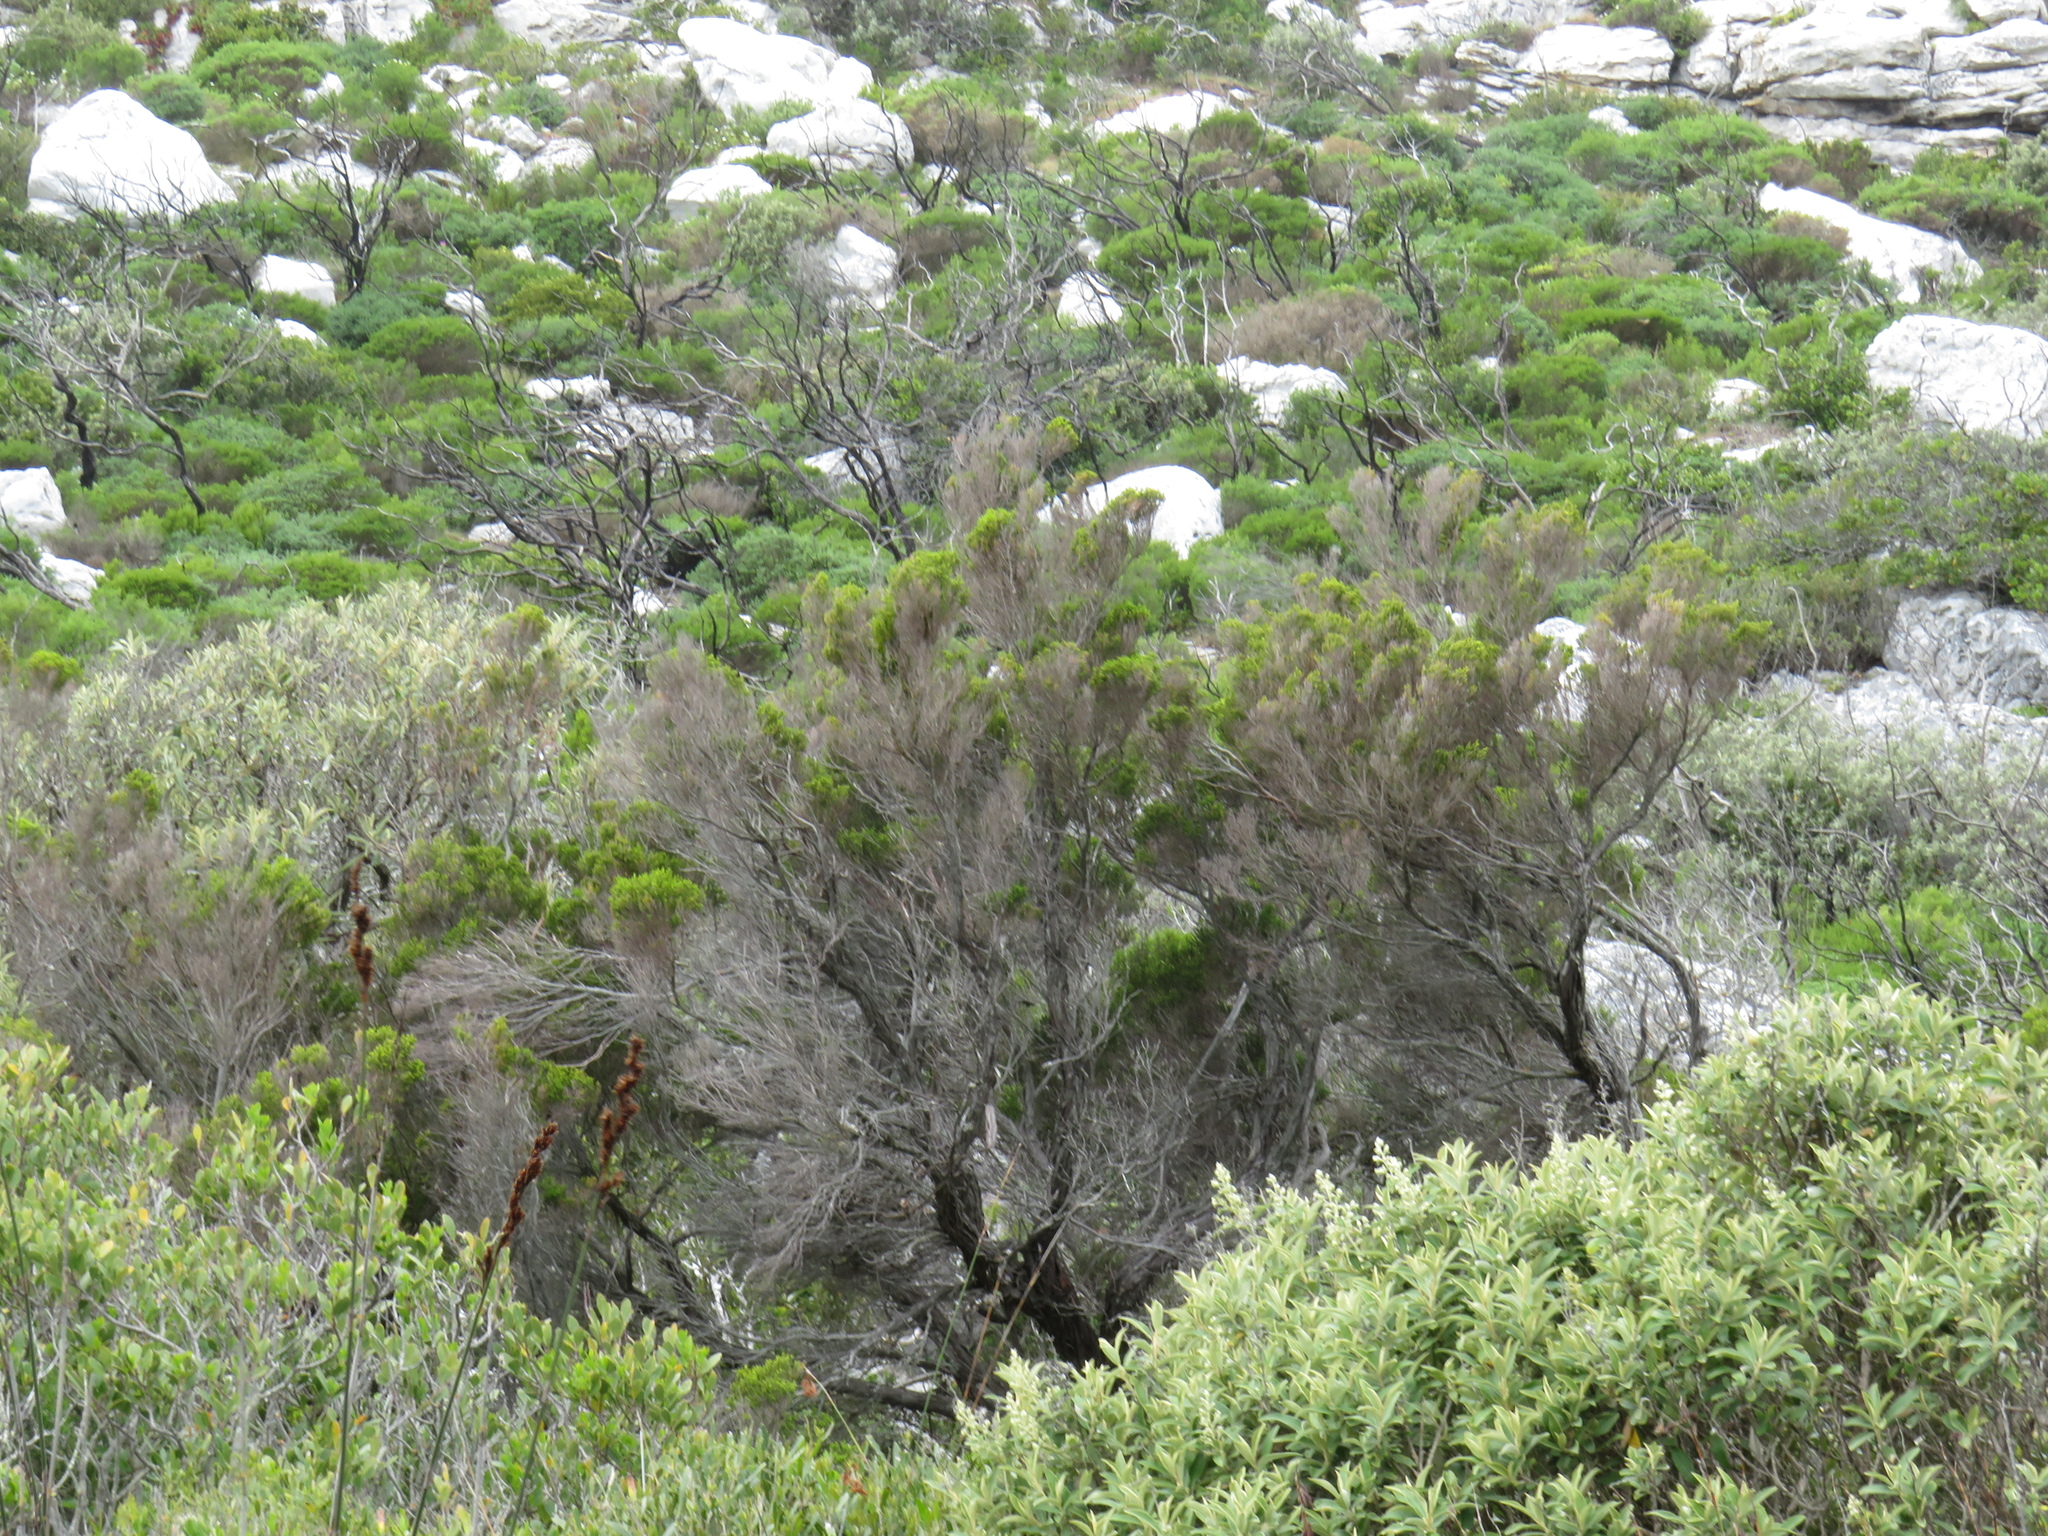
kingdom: Plantae
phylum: Tracheophyta
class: Magnoliopsida
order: Ericales
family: Ericaceae
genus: Erica
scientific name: Erica tristis
